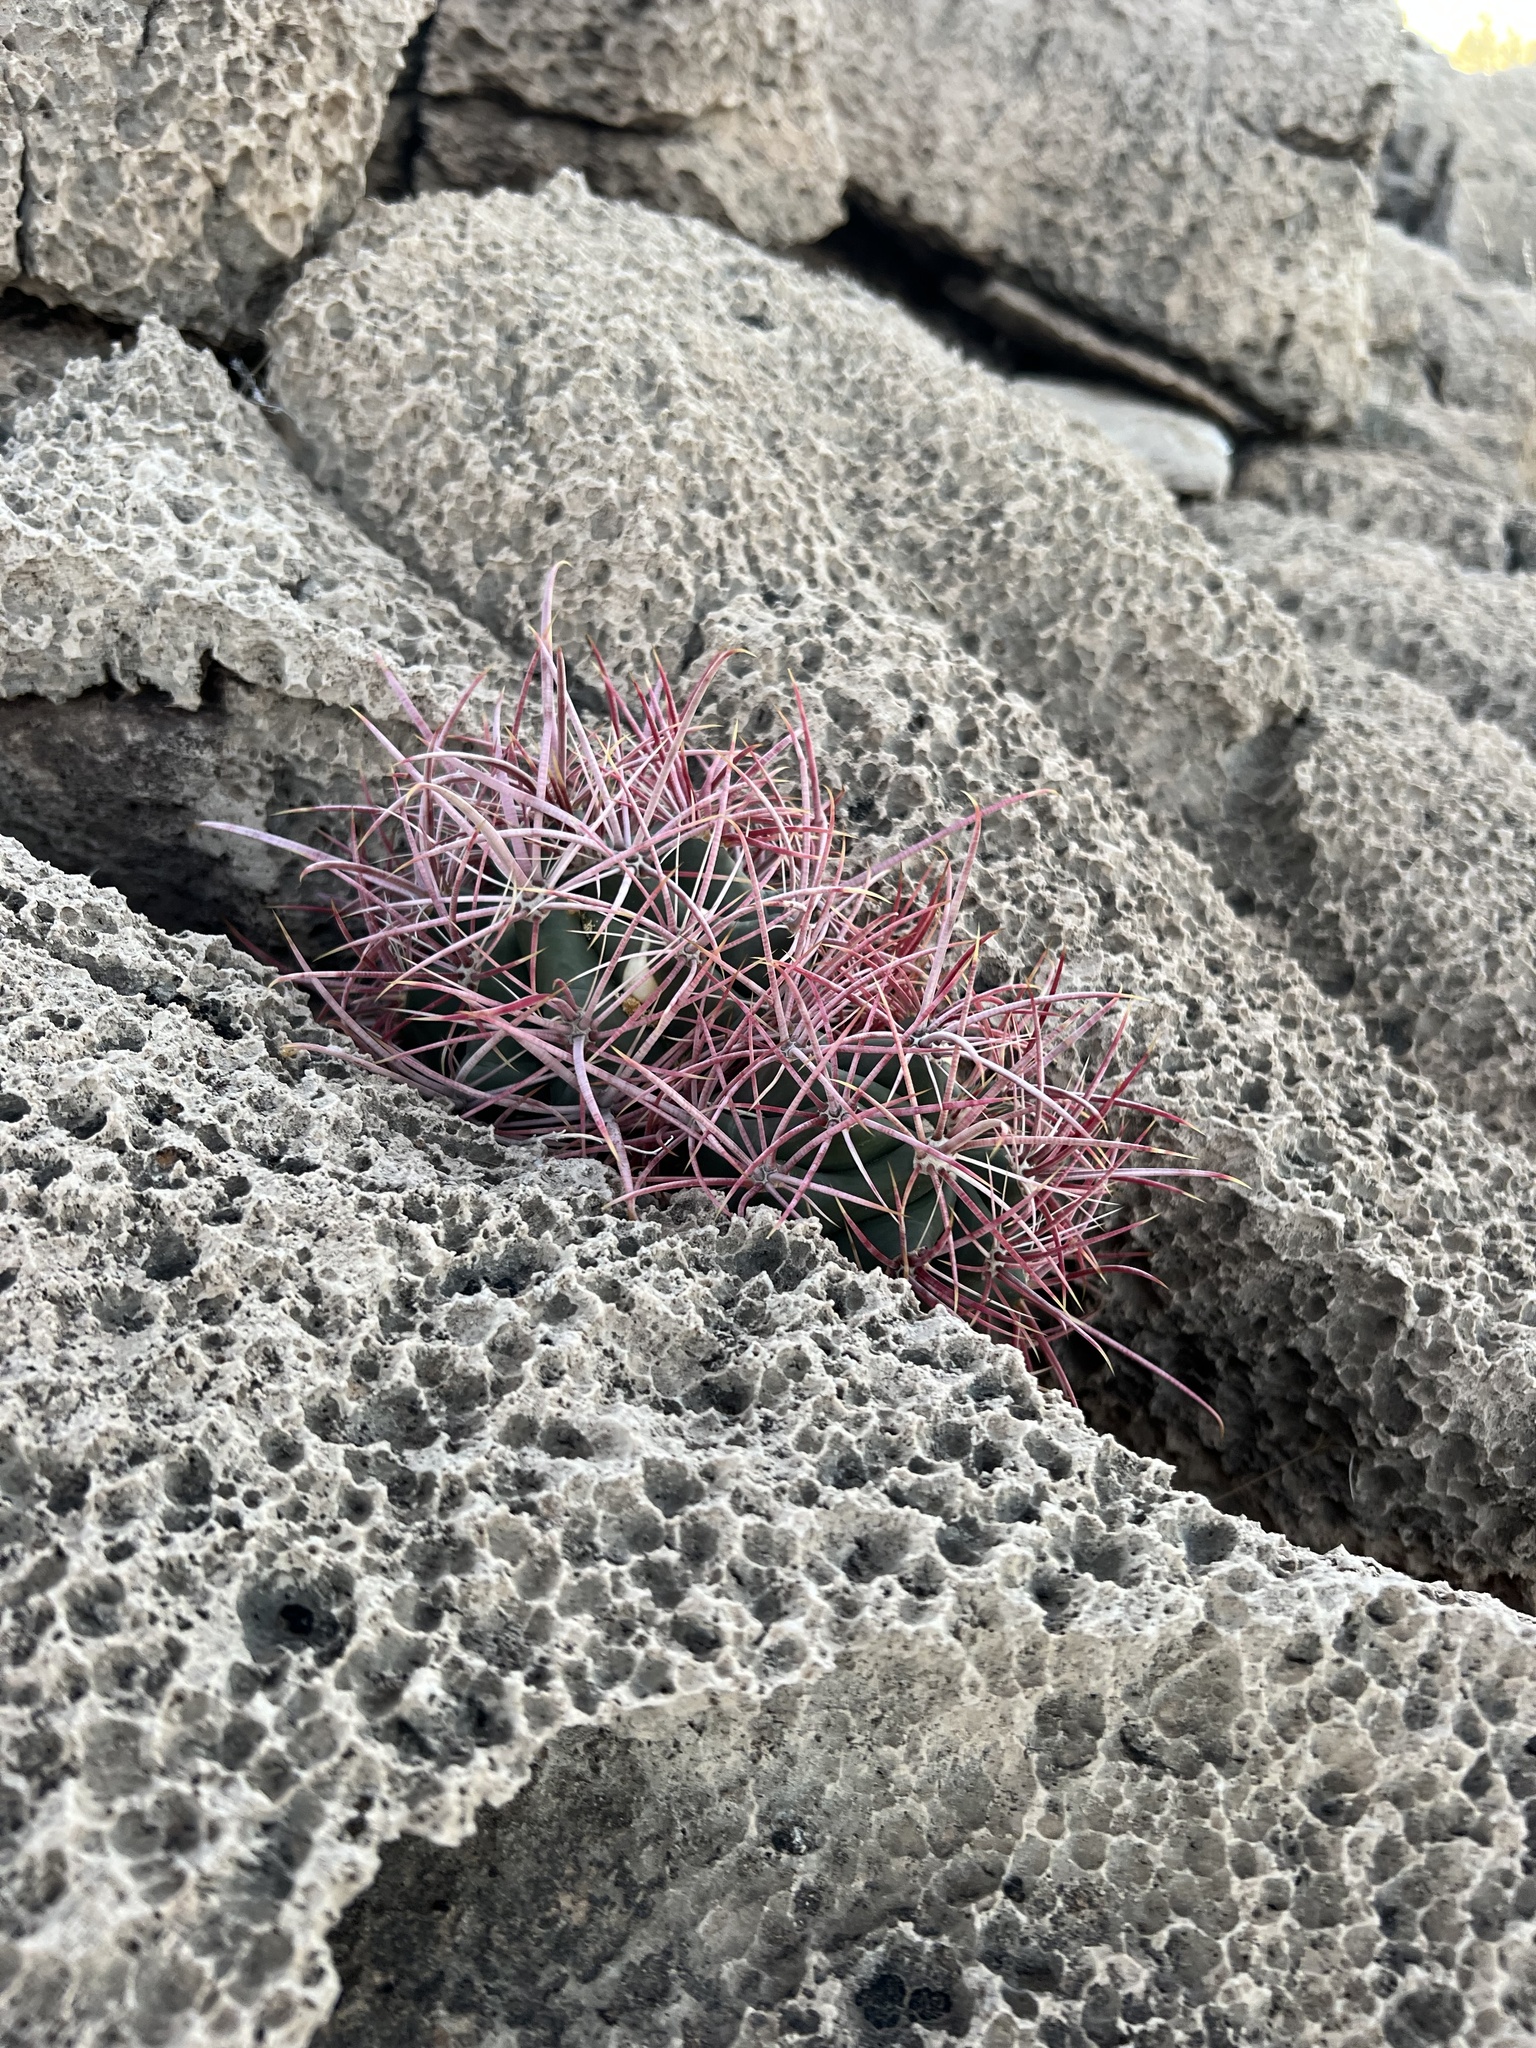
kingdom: Plantae
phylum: Tracheophyta
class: Magnoliopsida
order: Caryophyllales
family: Cactaceae
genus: Ferocactus
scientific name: Ferocactus cylindraceus
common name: California barrel cactus
